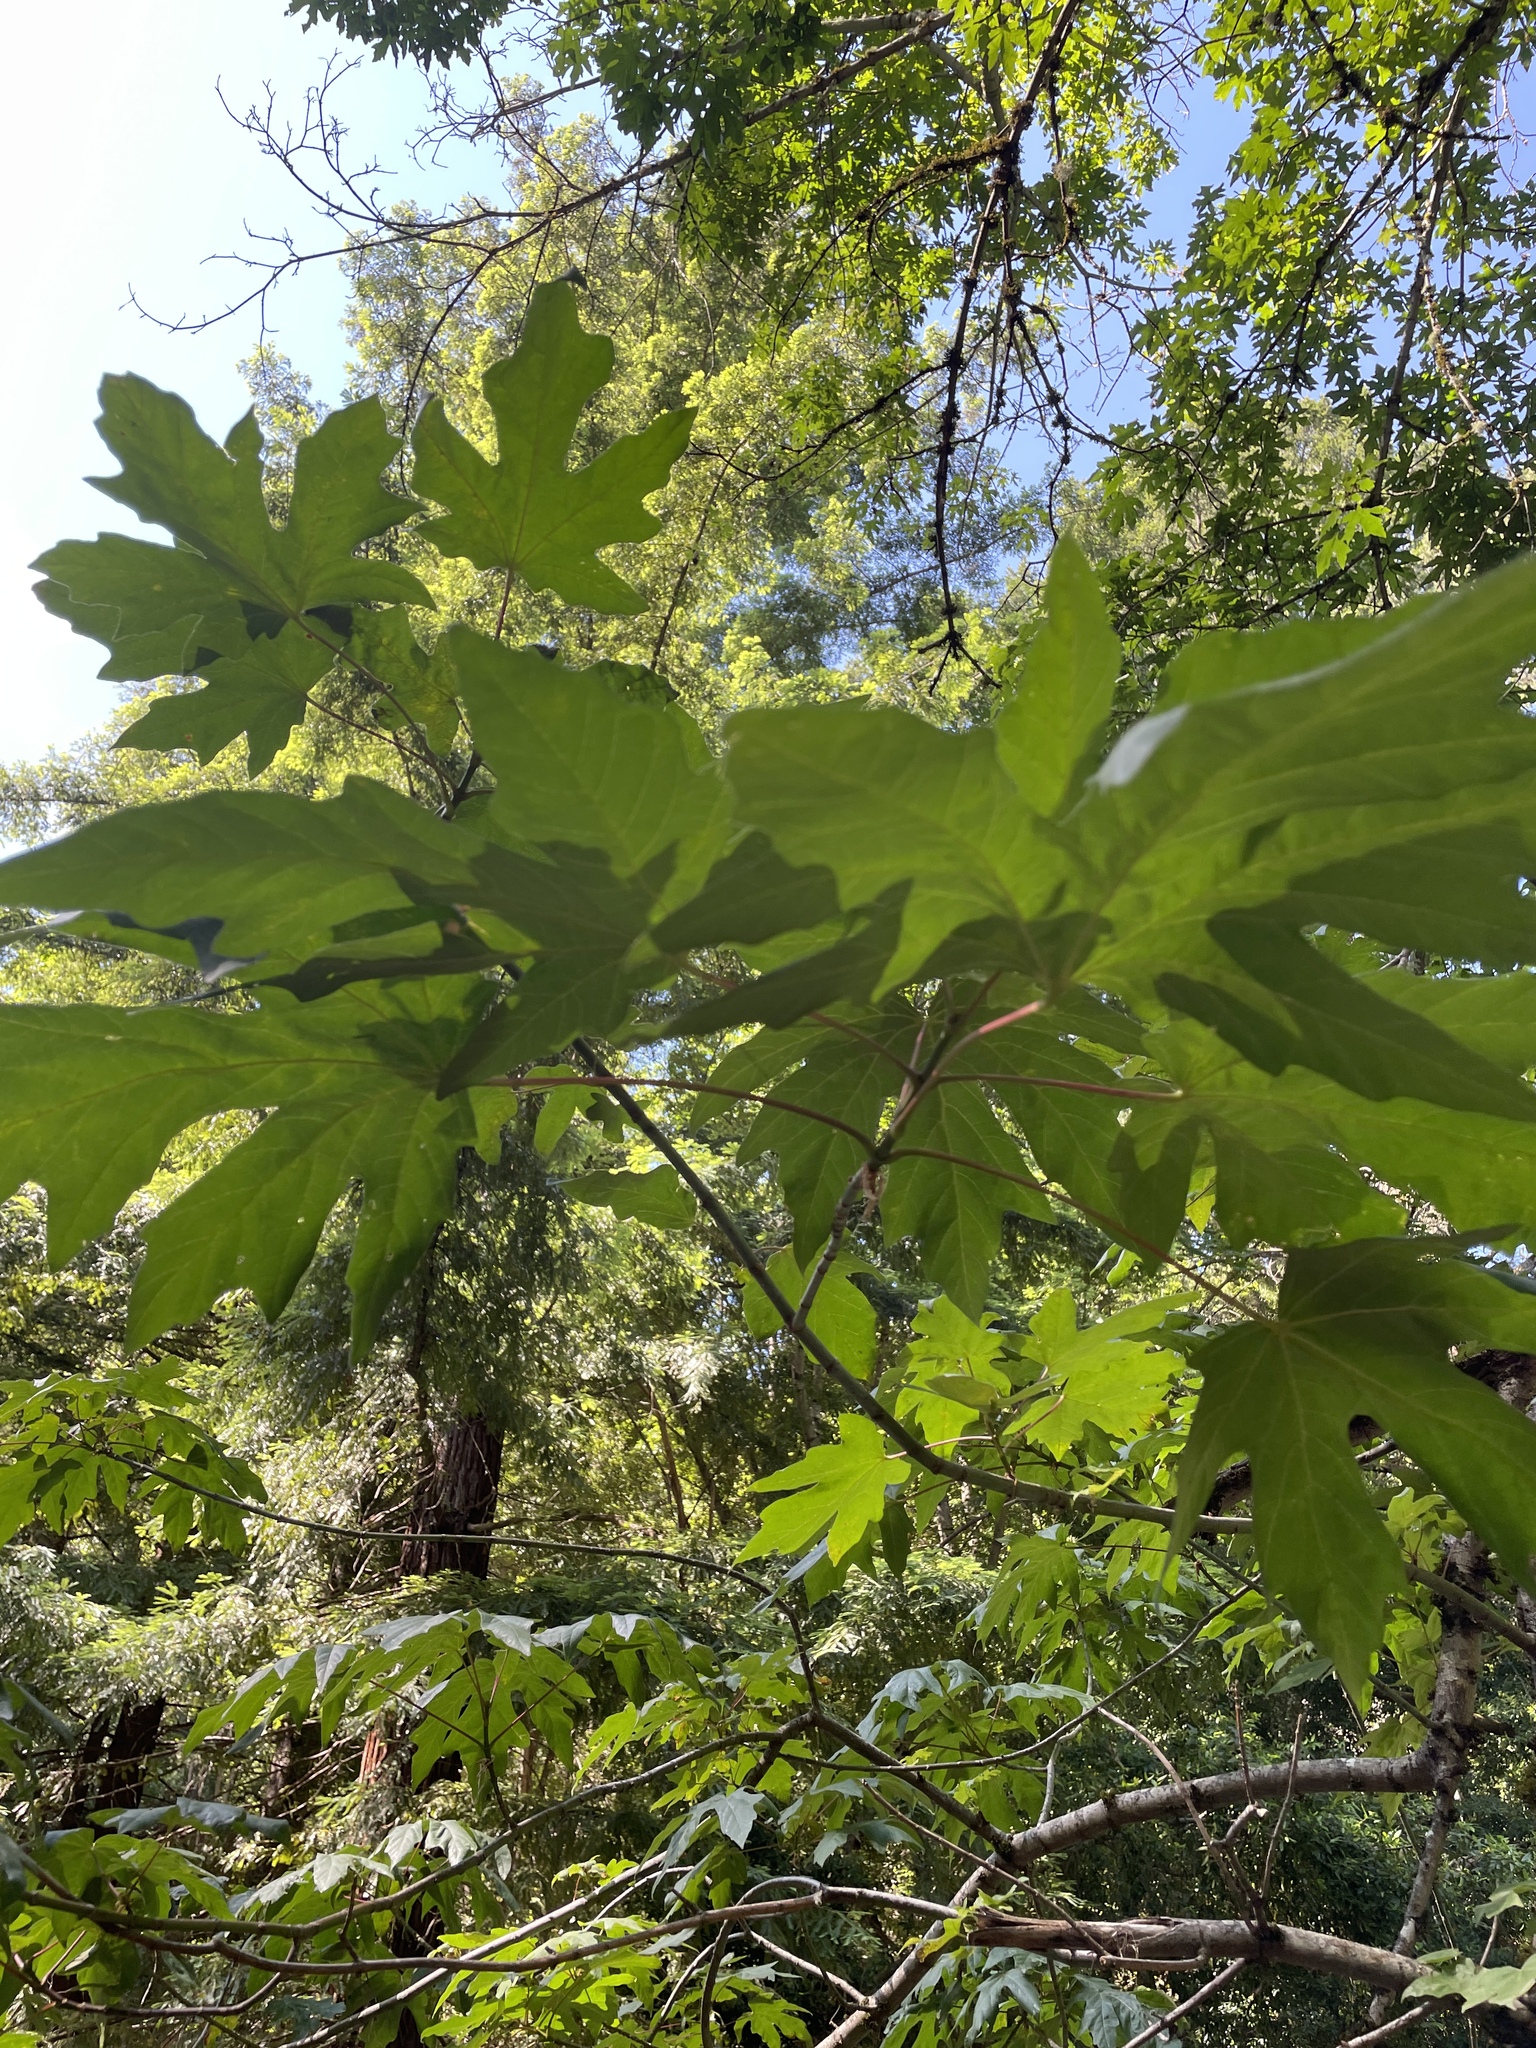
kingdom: Plantae
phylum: Tracheophyta
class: Magnoliopsida
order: Sapindales
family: Sapindaceae
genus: Acer
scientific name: Acer macrophyllum
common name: Oregon maple
